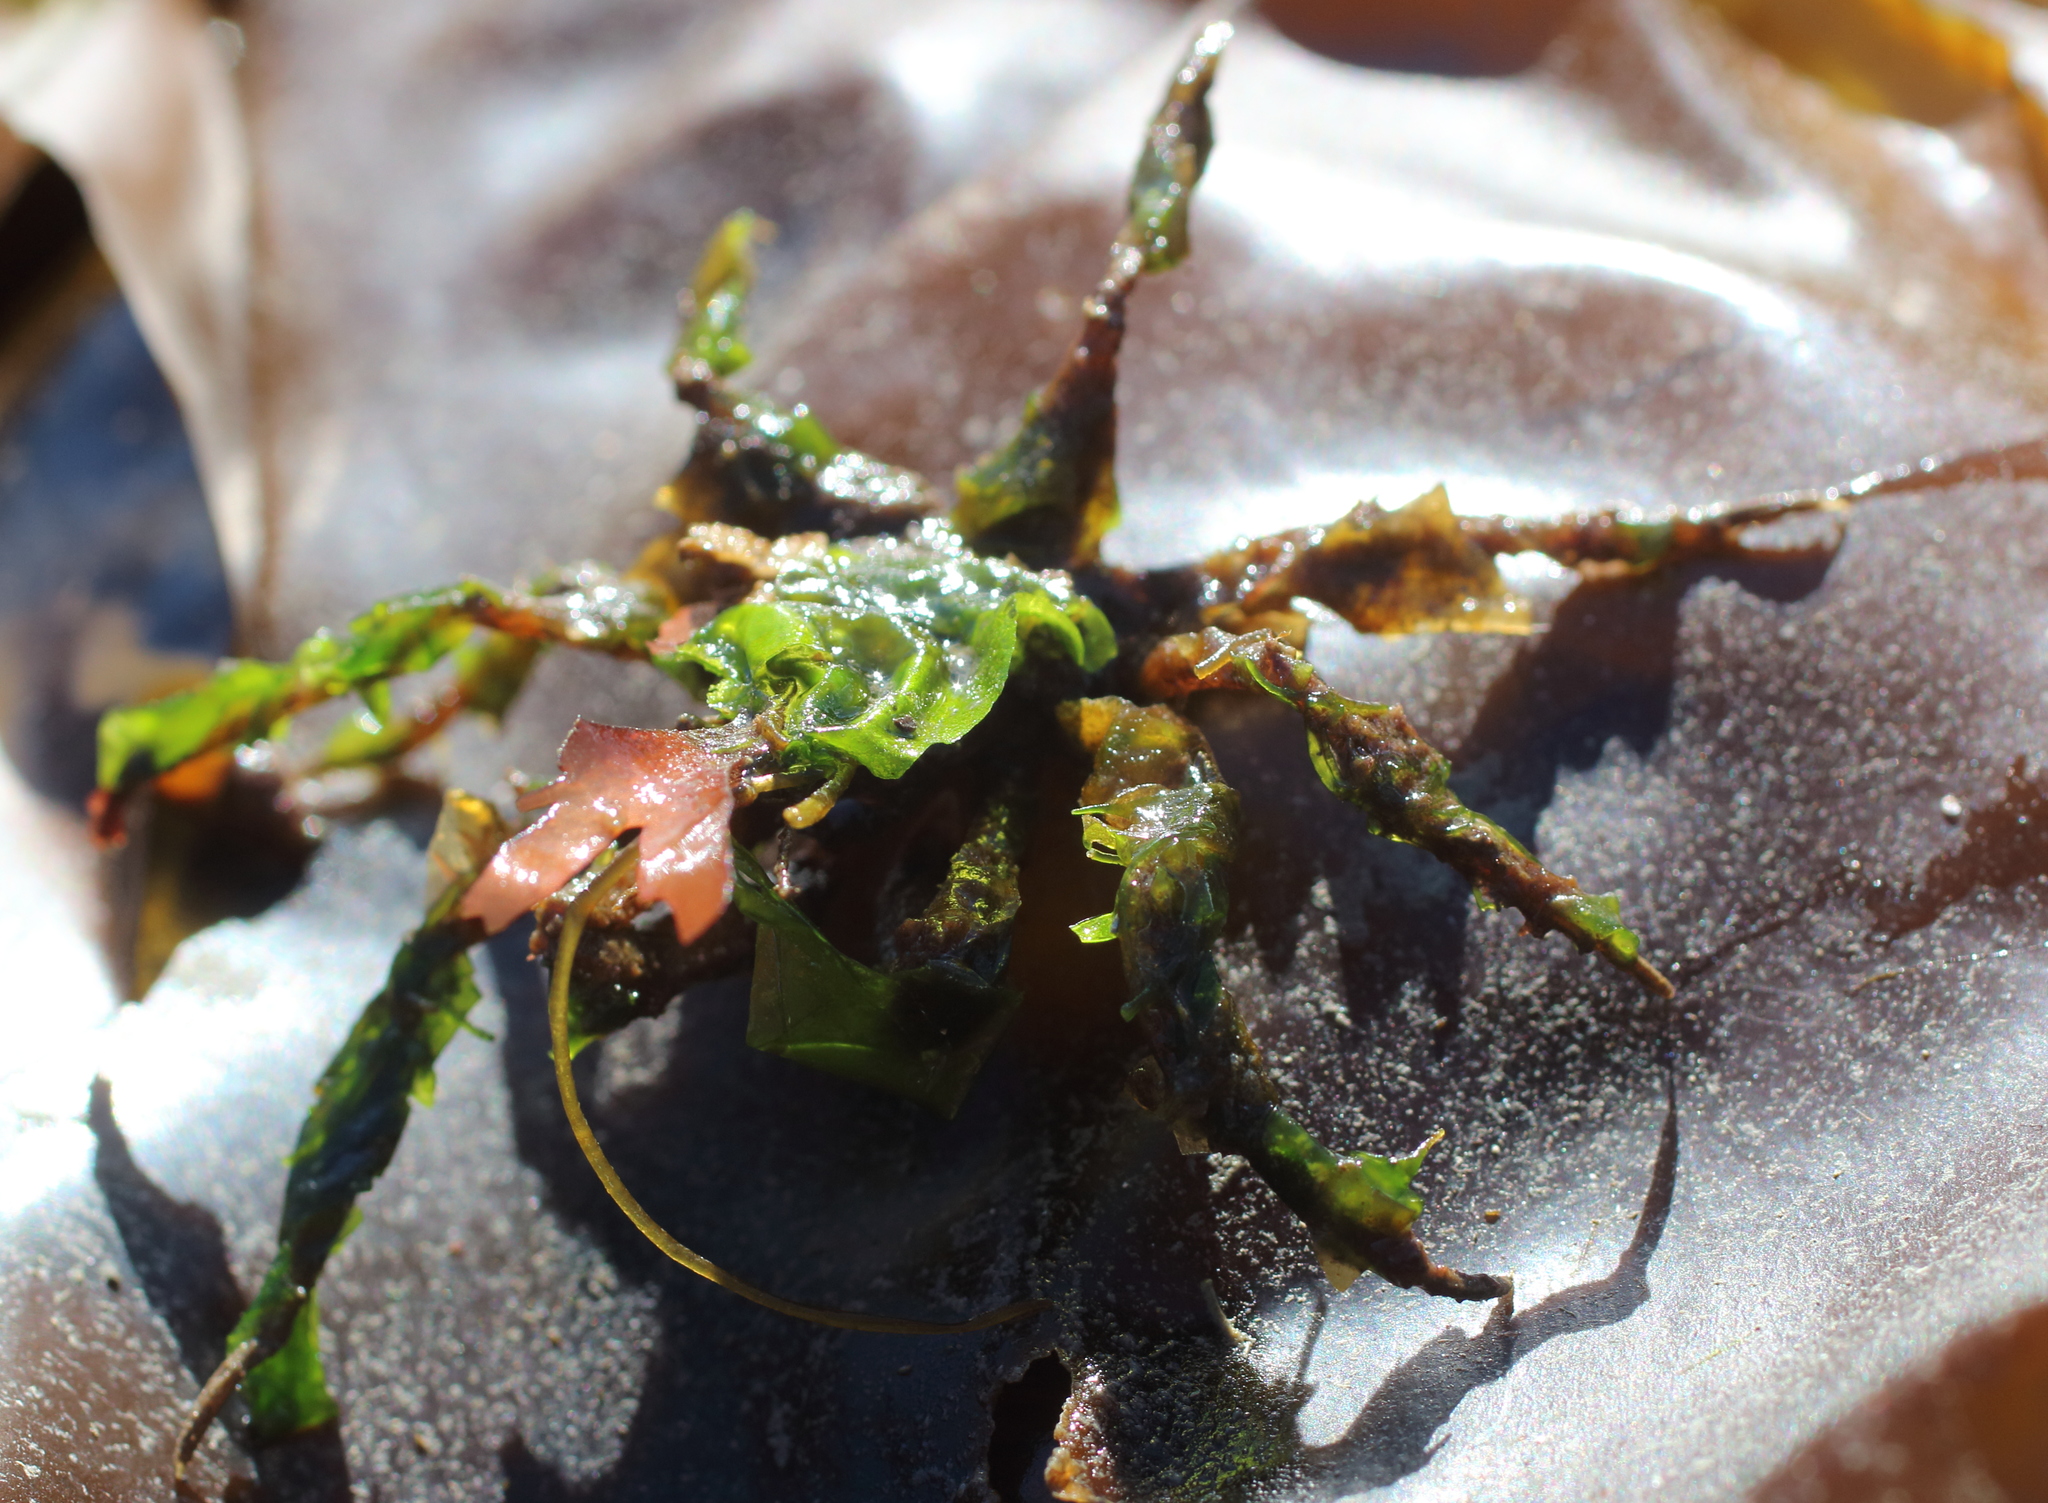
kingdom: Animalia
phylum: Arthropoda
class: Malacostraca
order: Decapoda
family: Oregoniidae
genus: Oregonia
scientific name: Oregonia gracilis
